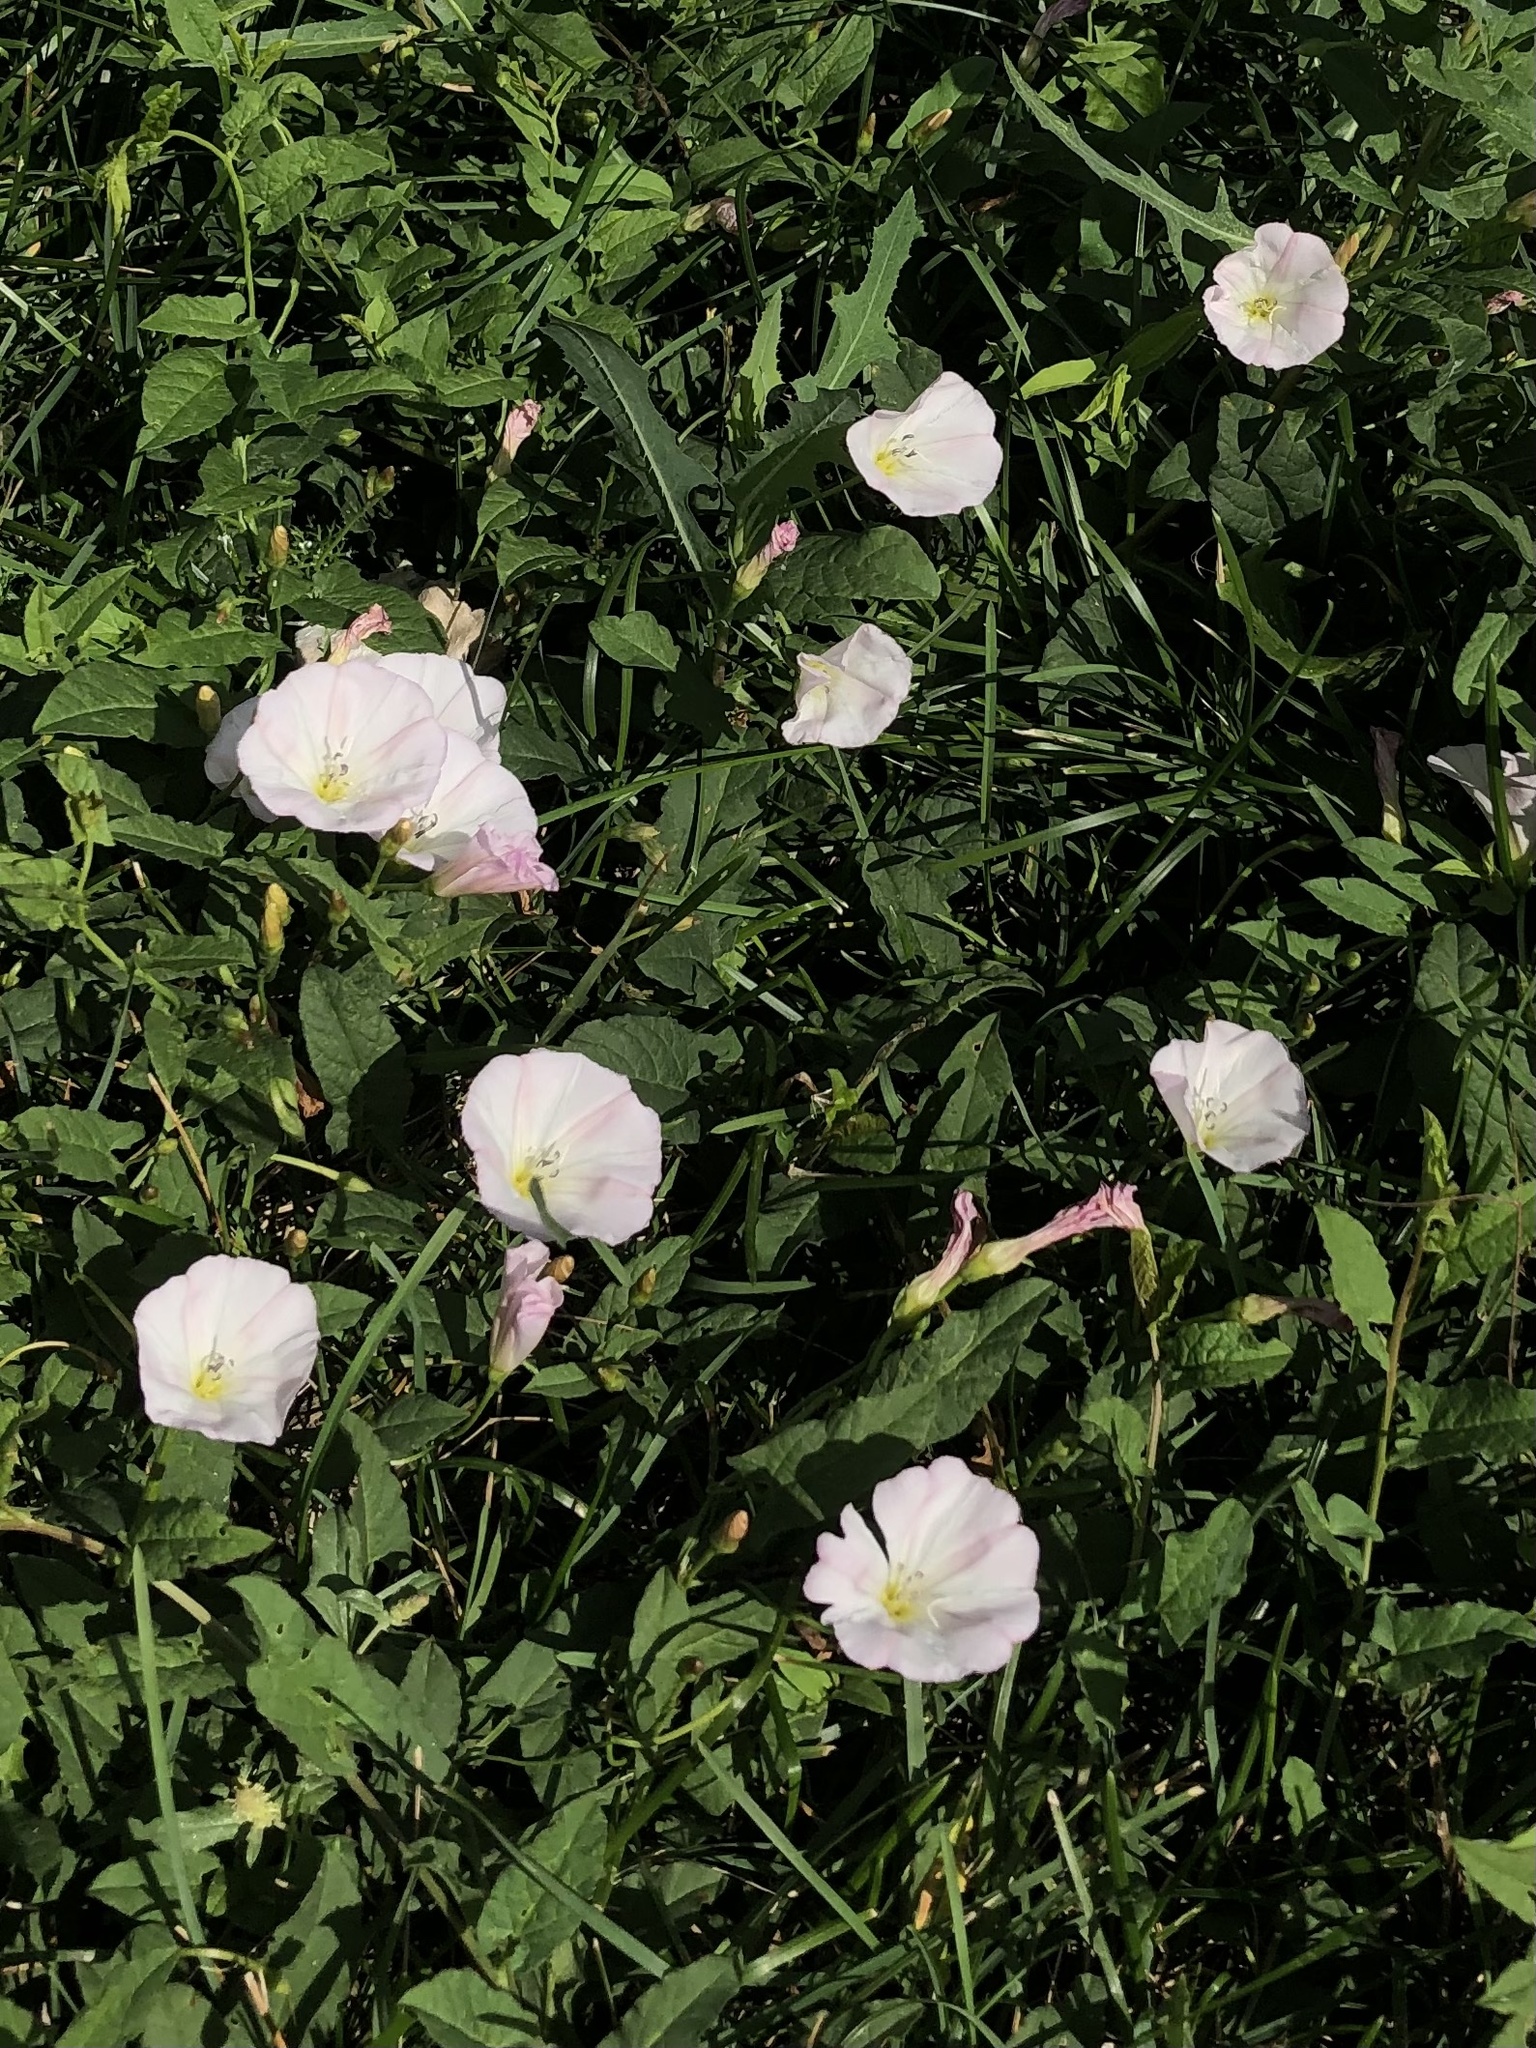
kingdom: Plantae
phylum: Tracheophyta
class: Magnoliopsida
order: Solanales
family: Convolvulaceae
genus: Convolvulus
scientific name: Convolvulus arvensis
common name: Field bindweed
